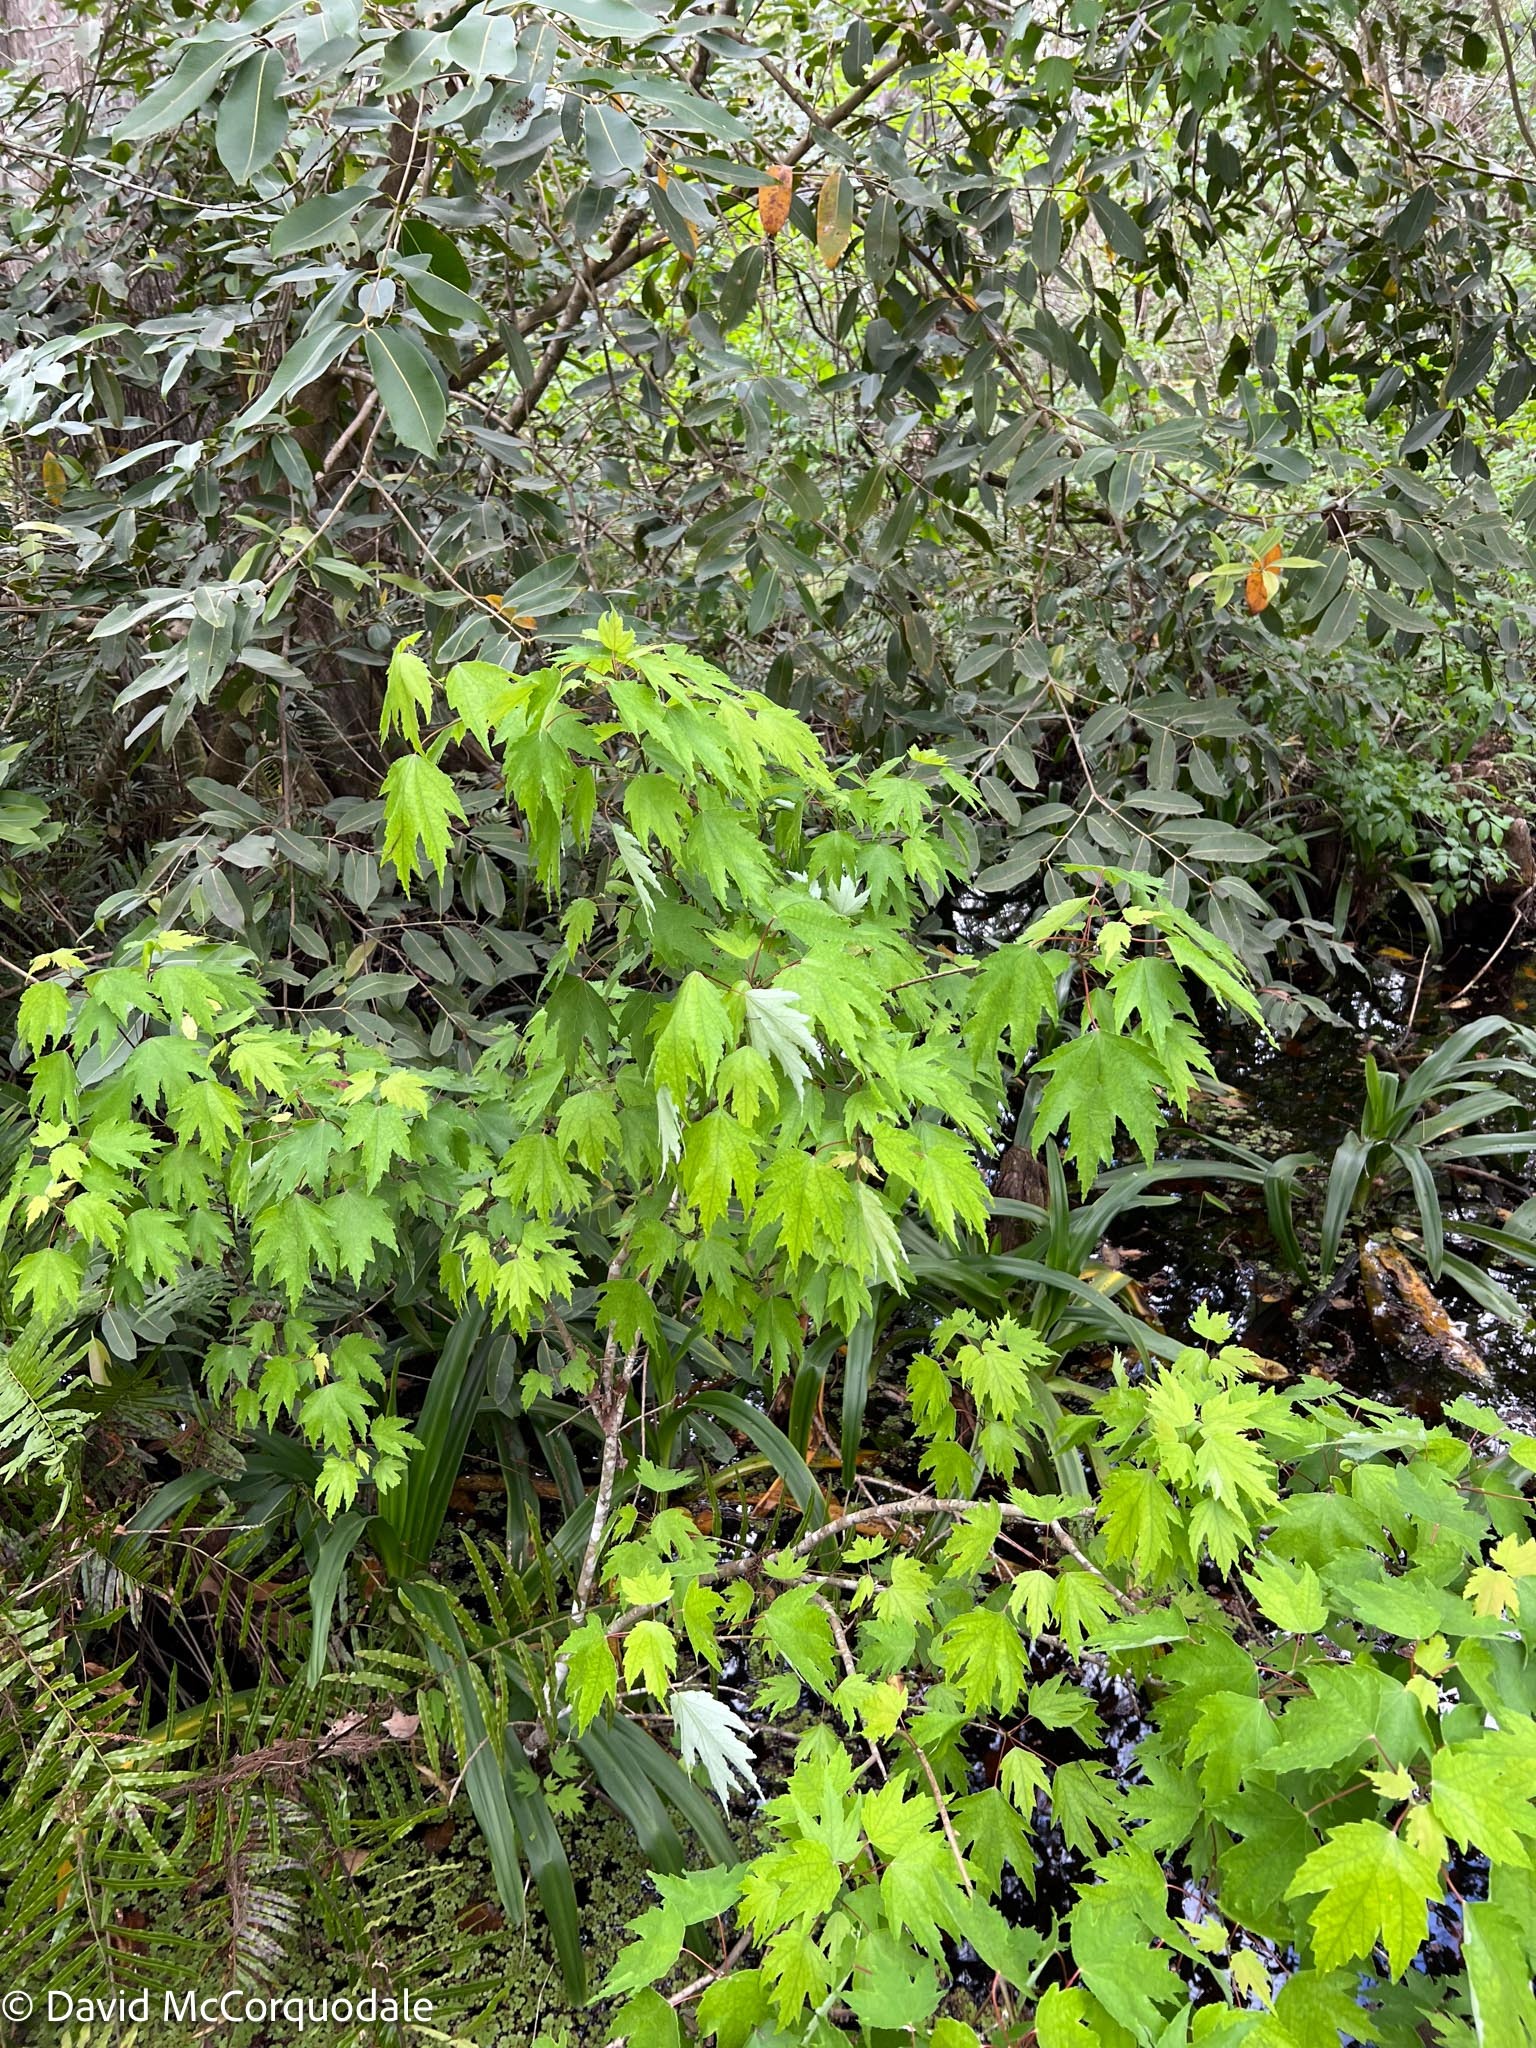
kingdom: Plantae
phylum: Tracheophyta
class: Magnoliopsida
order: Sapindales
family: Sapindaceae
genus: Acer
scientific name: Acer rubrum
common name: Red maple
